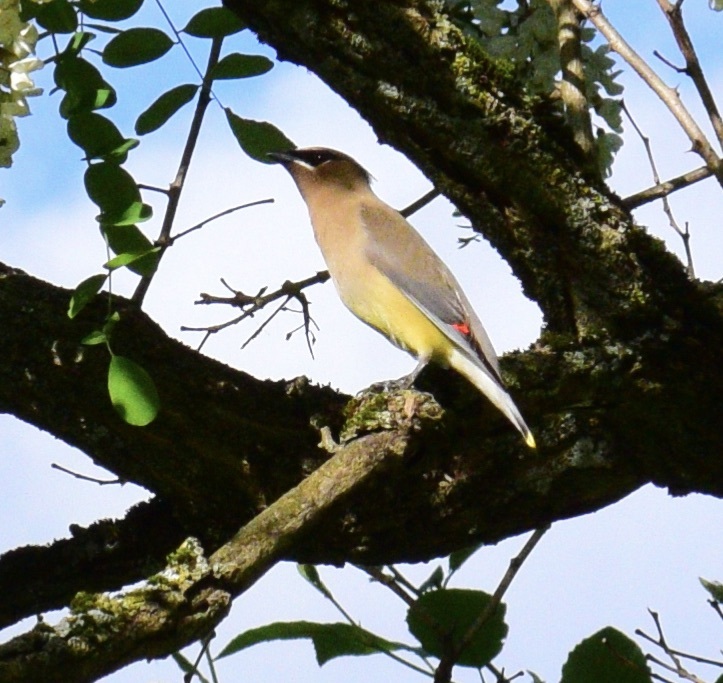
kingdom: Animalia
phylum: Chordata
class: Aves
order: Passeriformes
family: Bombycillidae
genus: Bombycilla
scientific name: Bombycilla cedrorum
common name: Cedar waxwing
